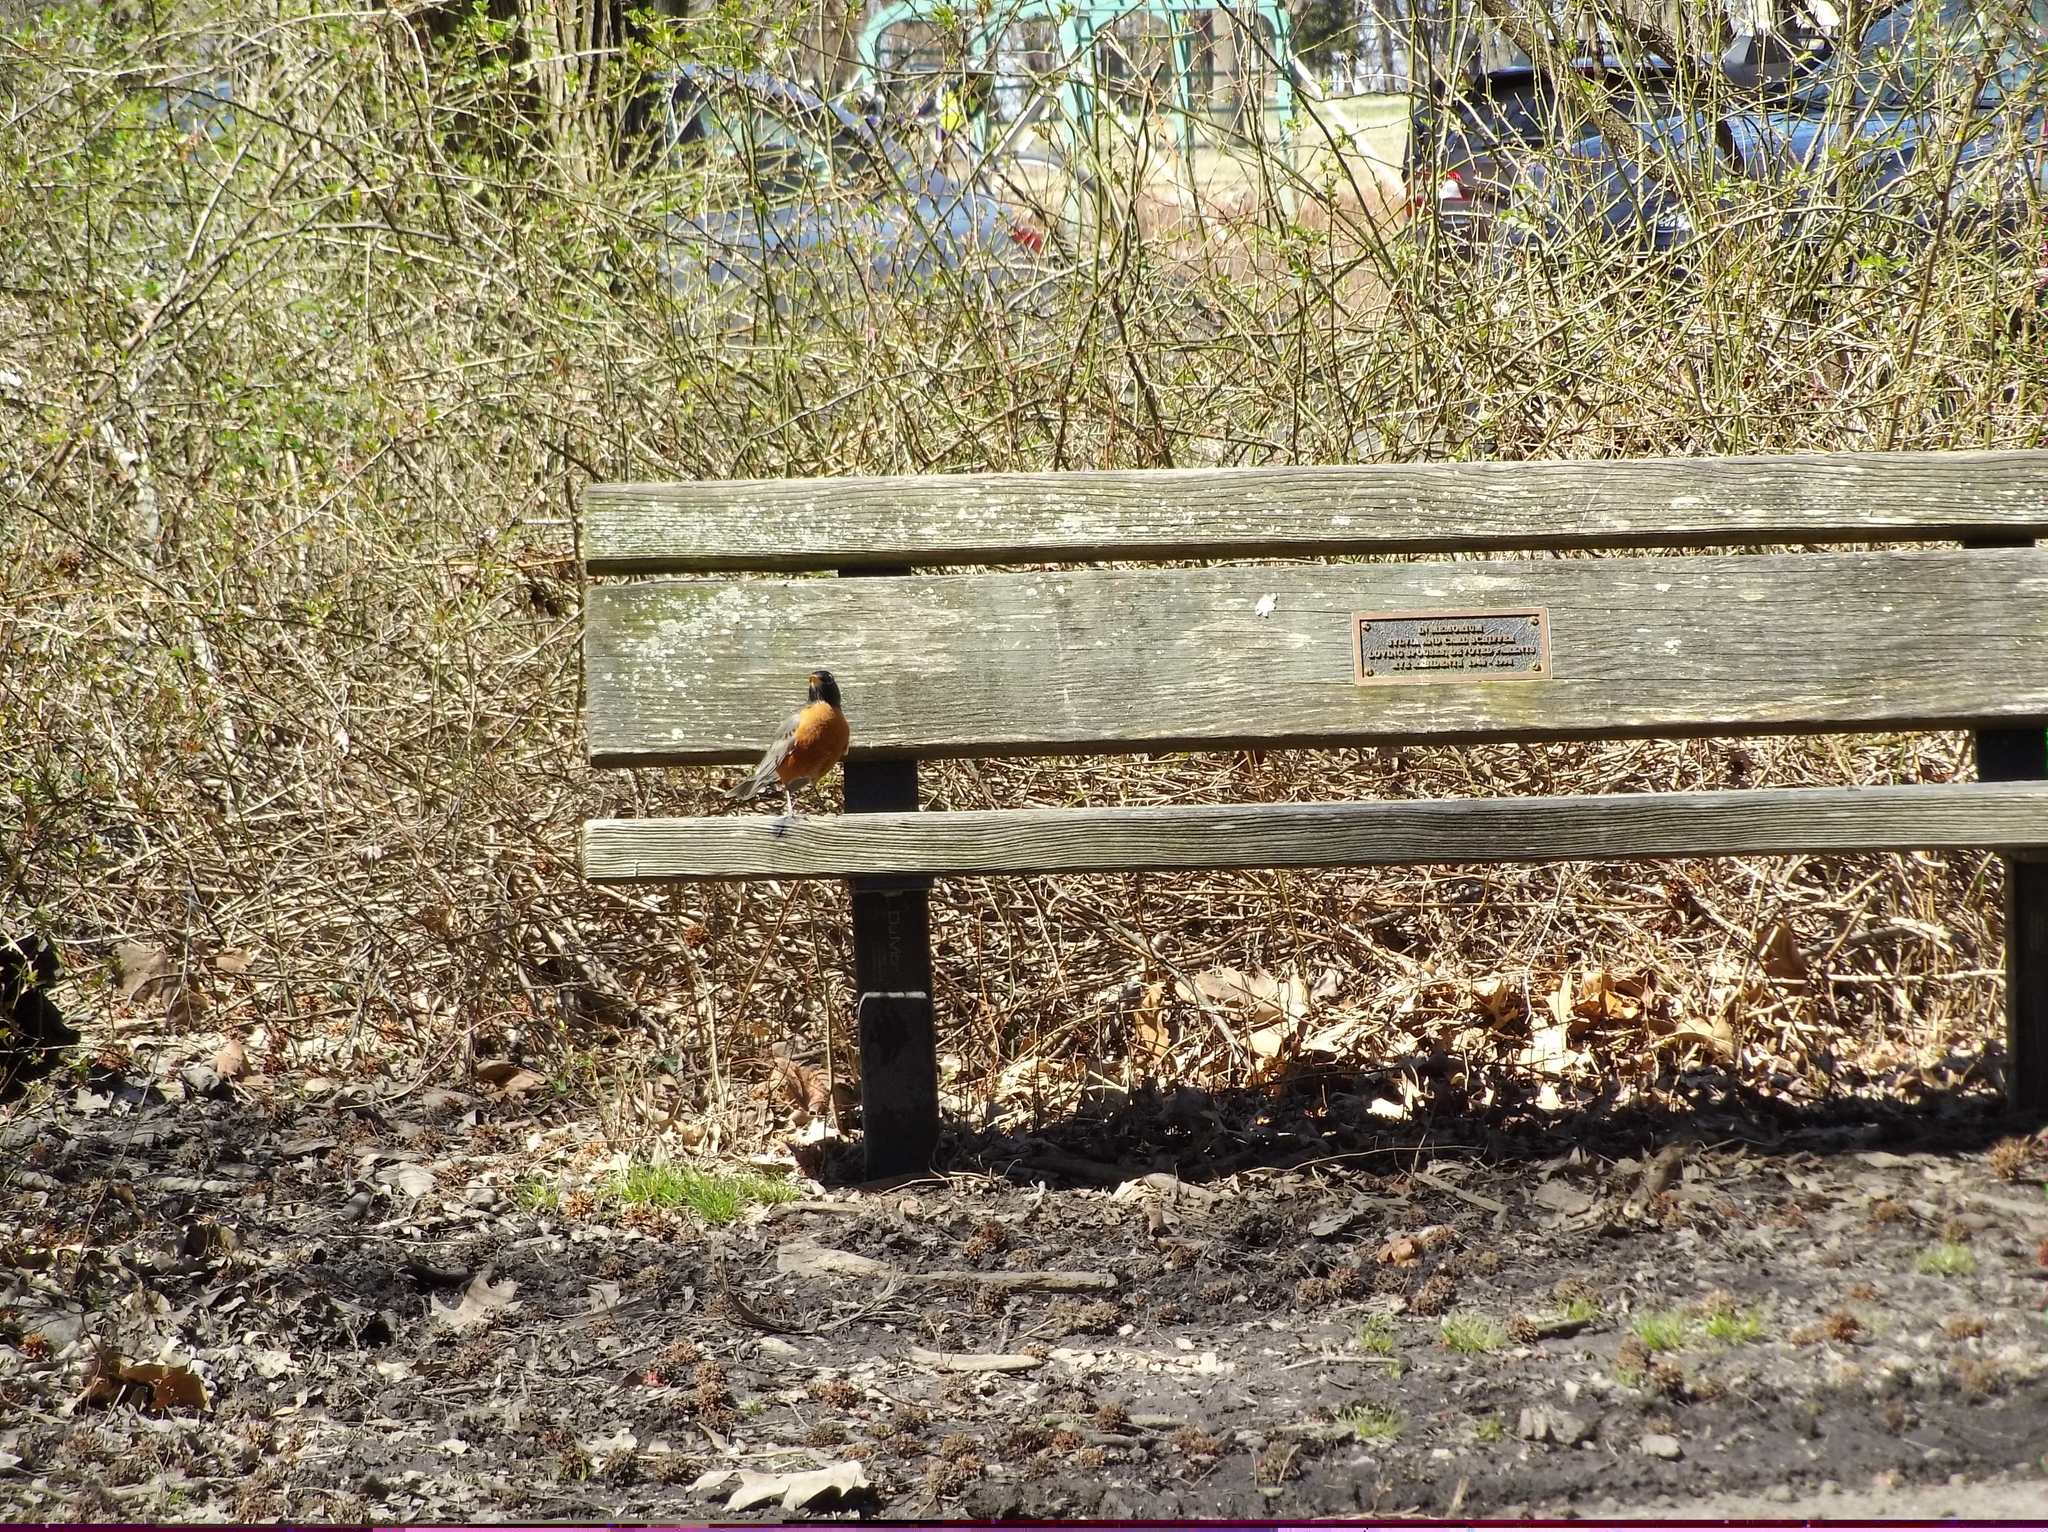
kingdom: Animalia
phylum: Chordata
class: Aves
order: Passeriformes
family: Turdidae
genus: Turdus
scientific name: Turdus migratorius
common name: American robin
